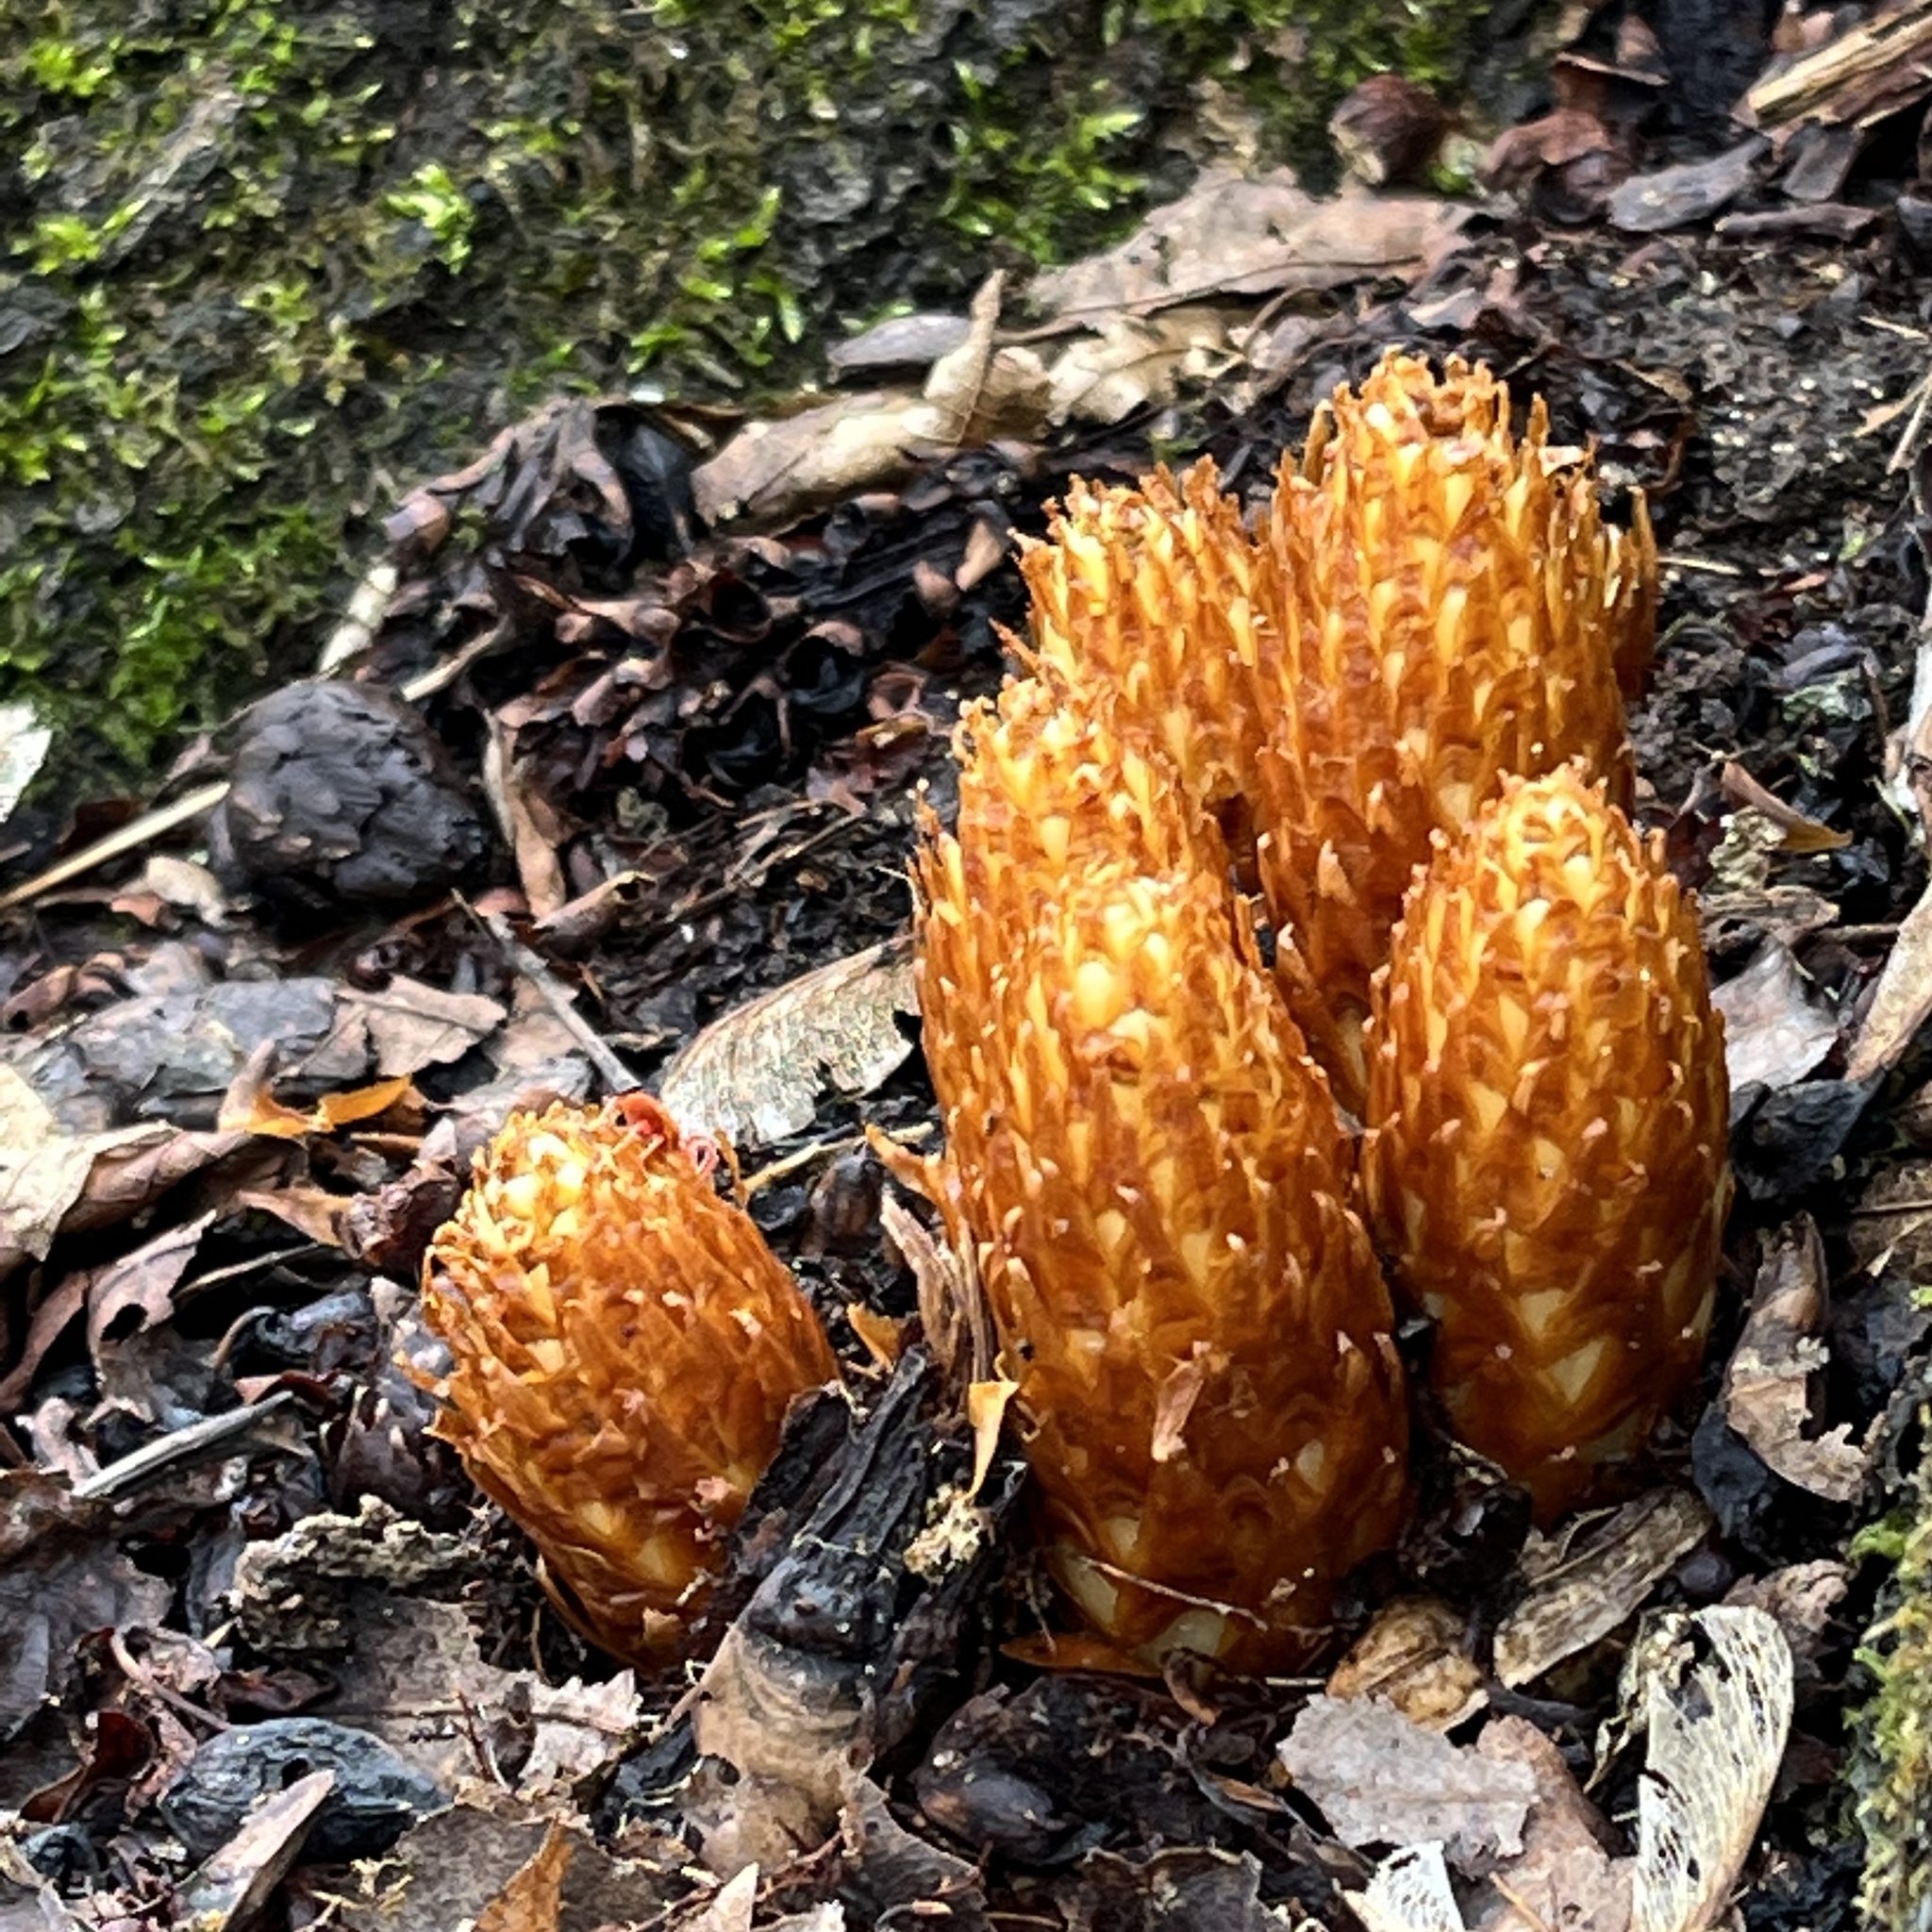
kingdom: Plantae
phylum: Tracheophyta
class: Magnoliopsida
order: Lamiales
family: Orobanchaceae
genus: Conopholis
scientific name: Conopholis americana
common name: American cancer-root
